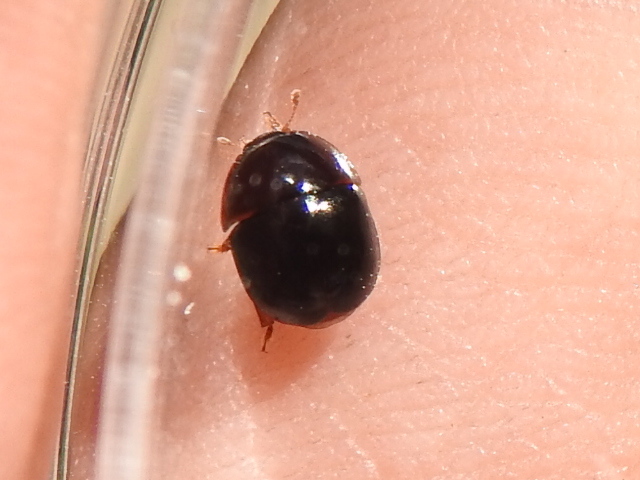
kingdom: Animalia
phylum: Arthropoda
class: Insecta
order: Coleoptera
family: Nitidulidae
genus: Camptodes
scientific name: Camptodes texanus
